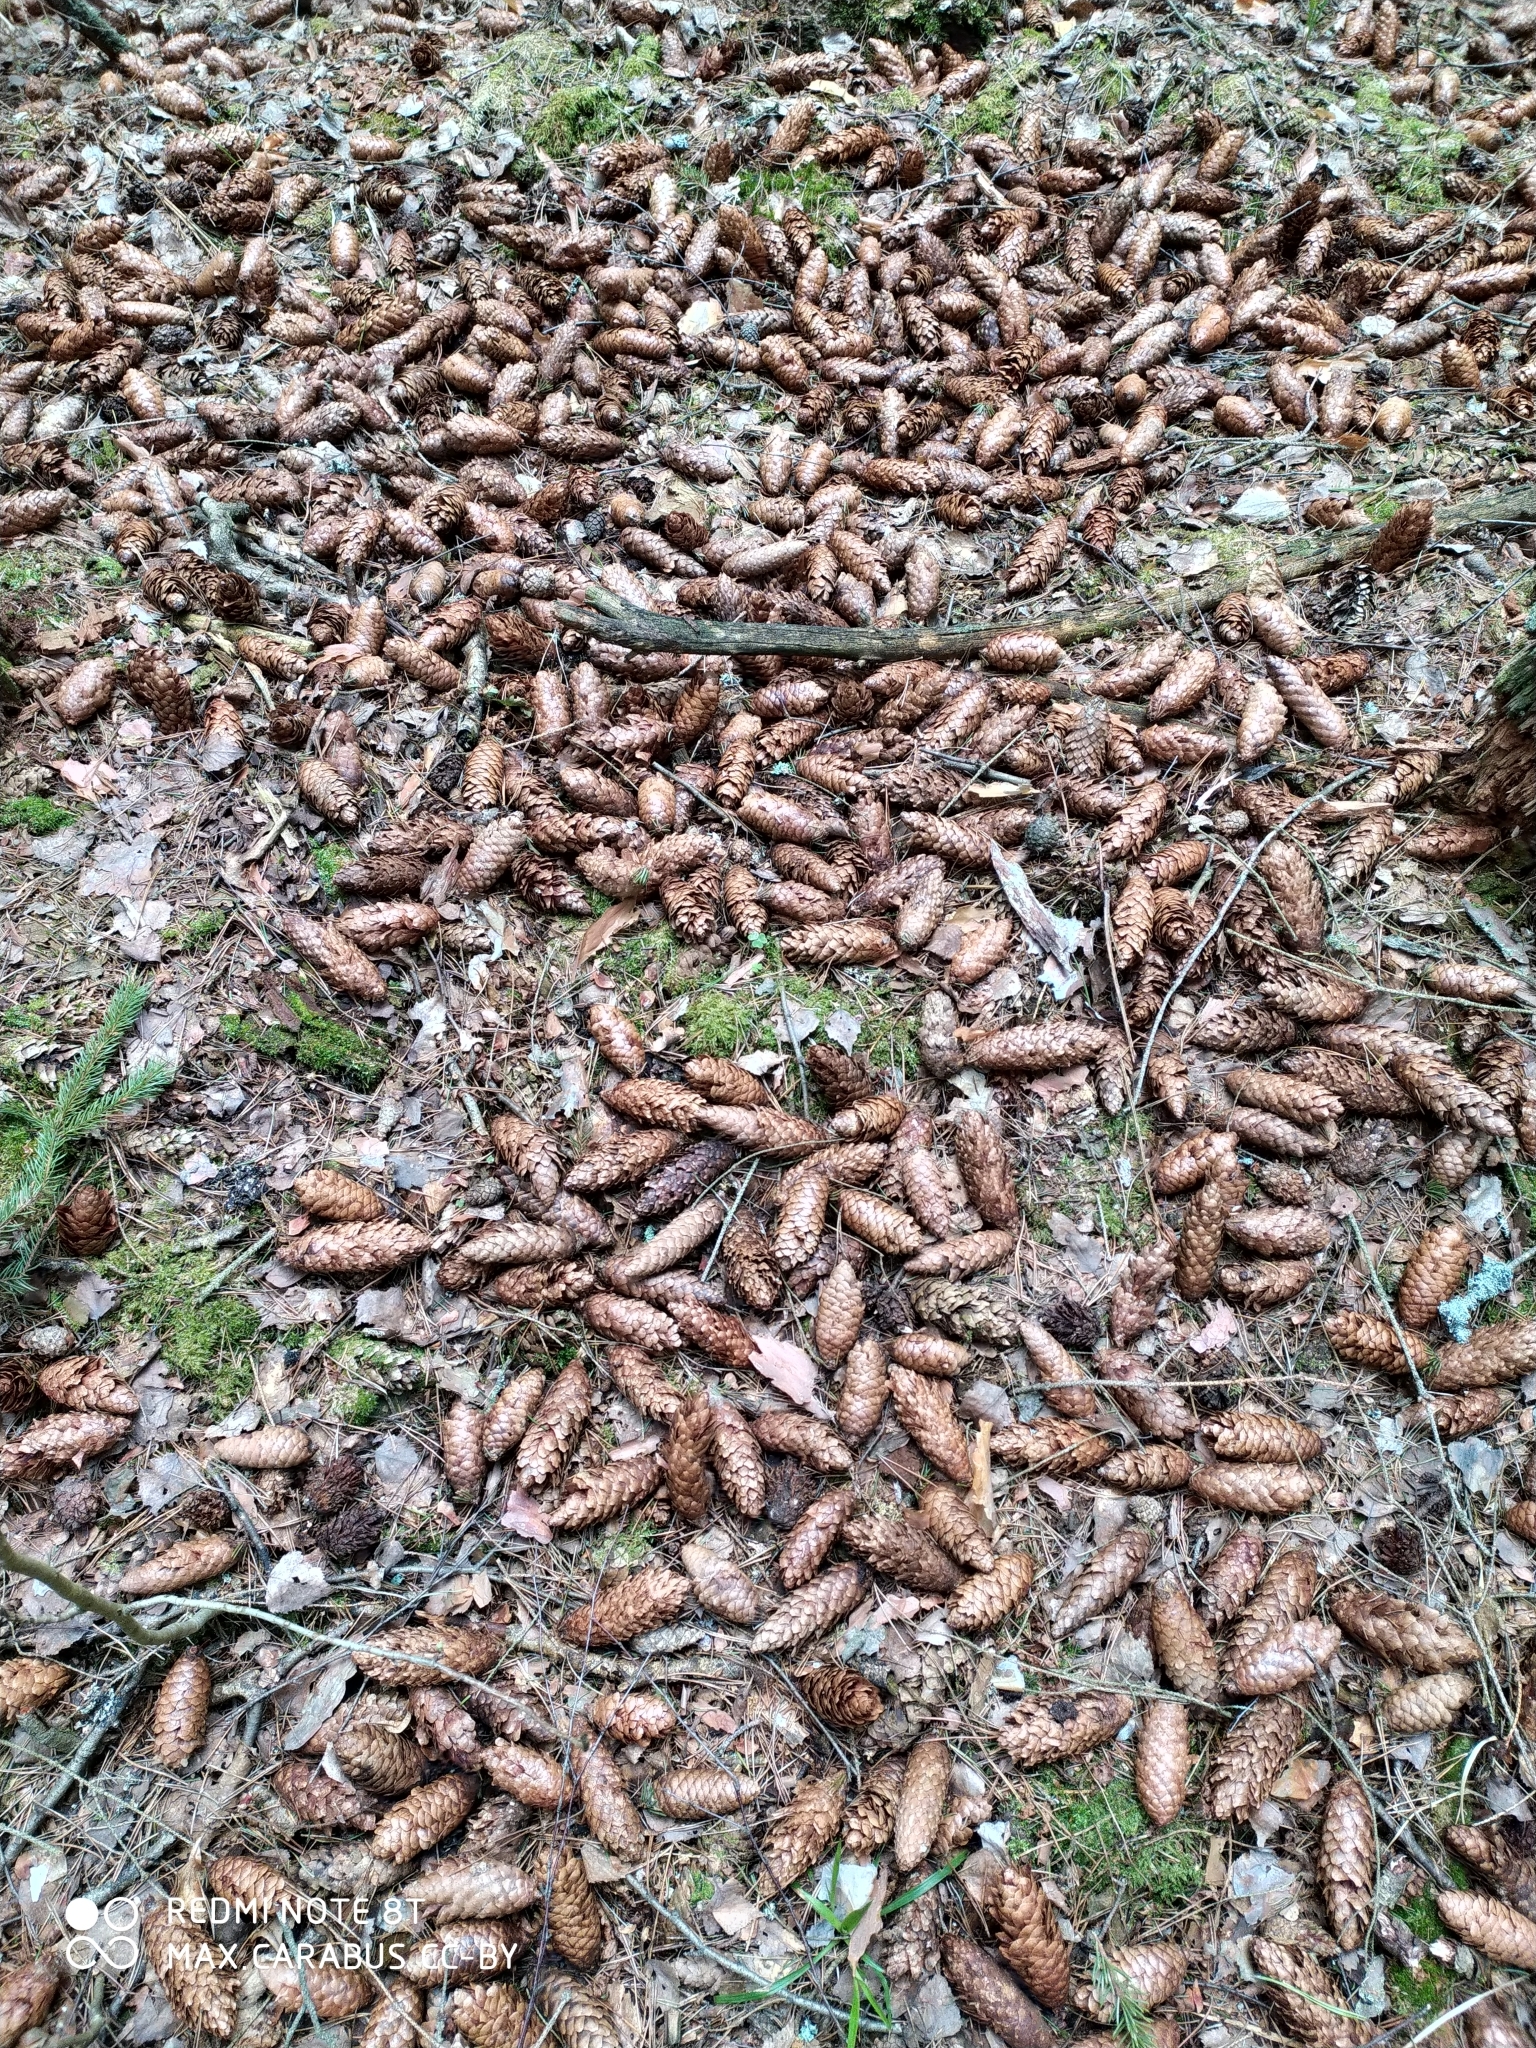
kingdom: Plantae
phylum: Tracheophyta
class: Pinopsida
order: Pinales
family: Pinaceae
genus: Picea
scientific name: Picea abies
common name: Norway spruce
